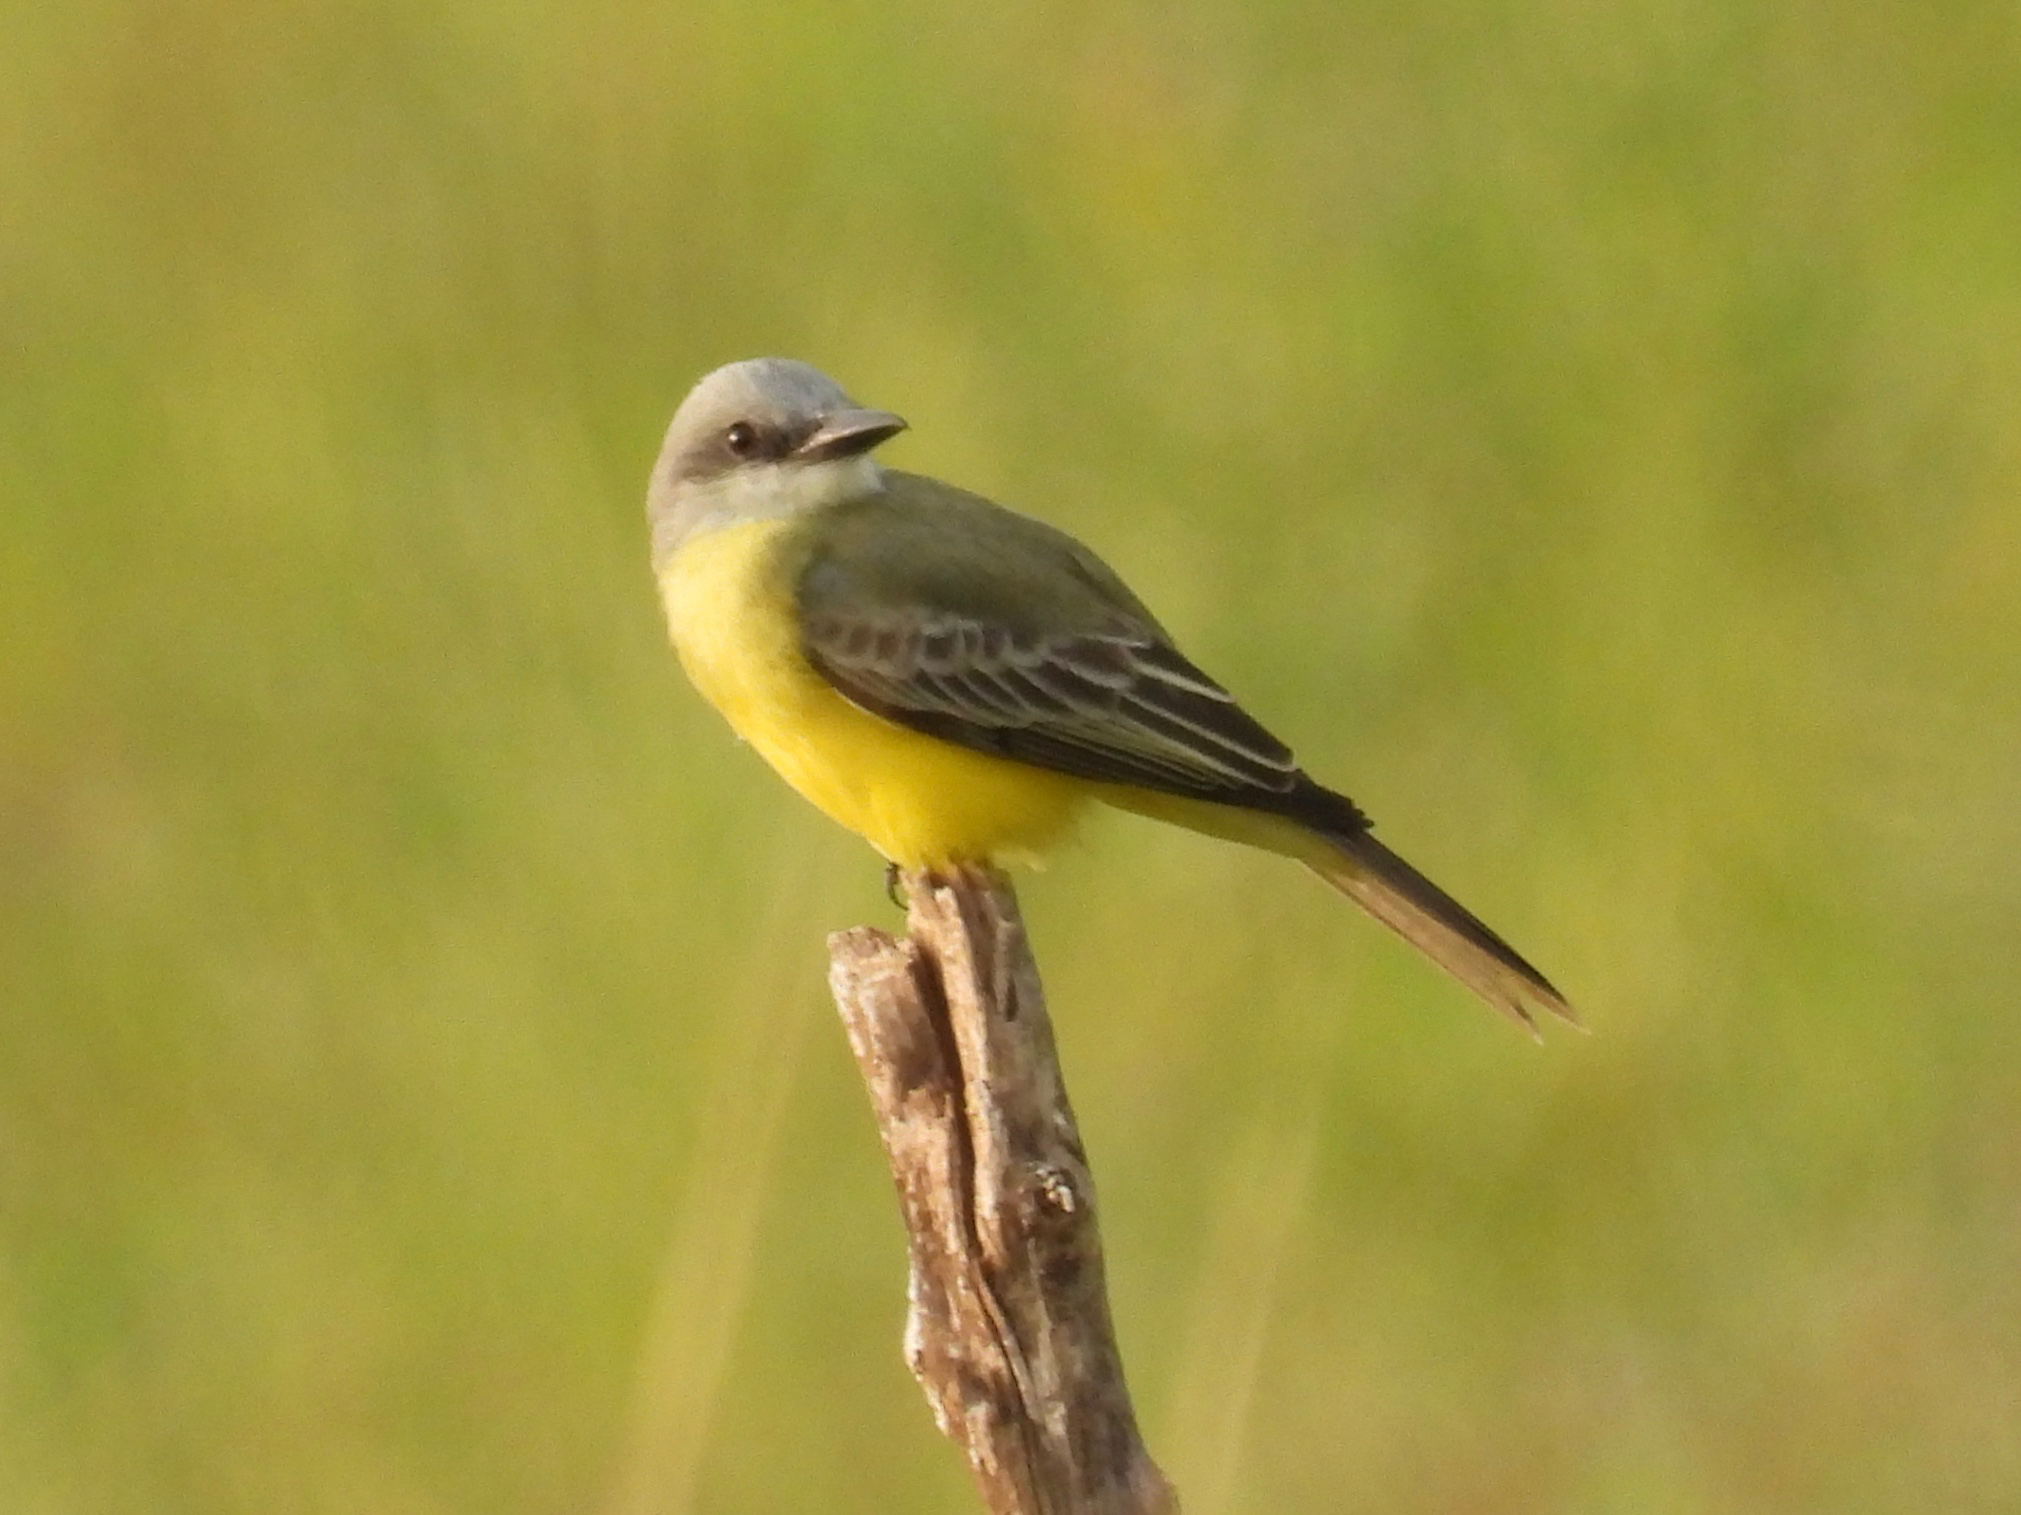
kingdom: Animalia
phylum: Chordata
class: Aves
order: Passeriformes
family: Tyrannidae
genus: Tyrannus
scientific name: Tyrannus melancholicus
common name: Tropical kingbird
